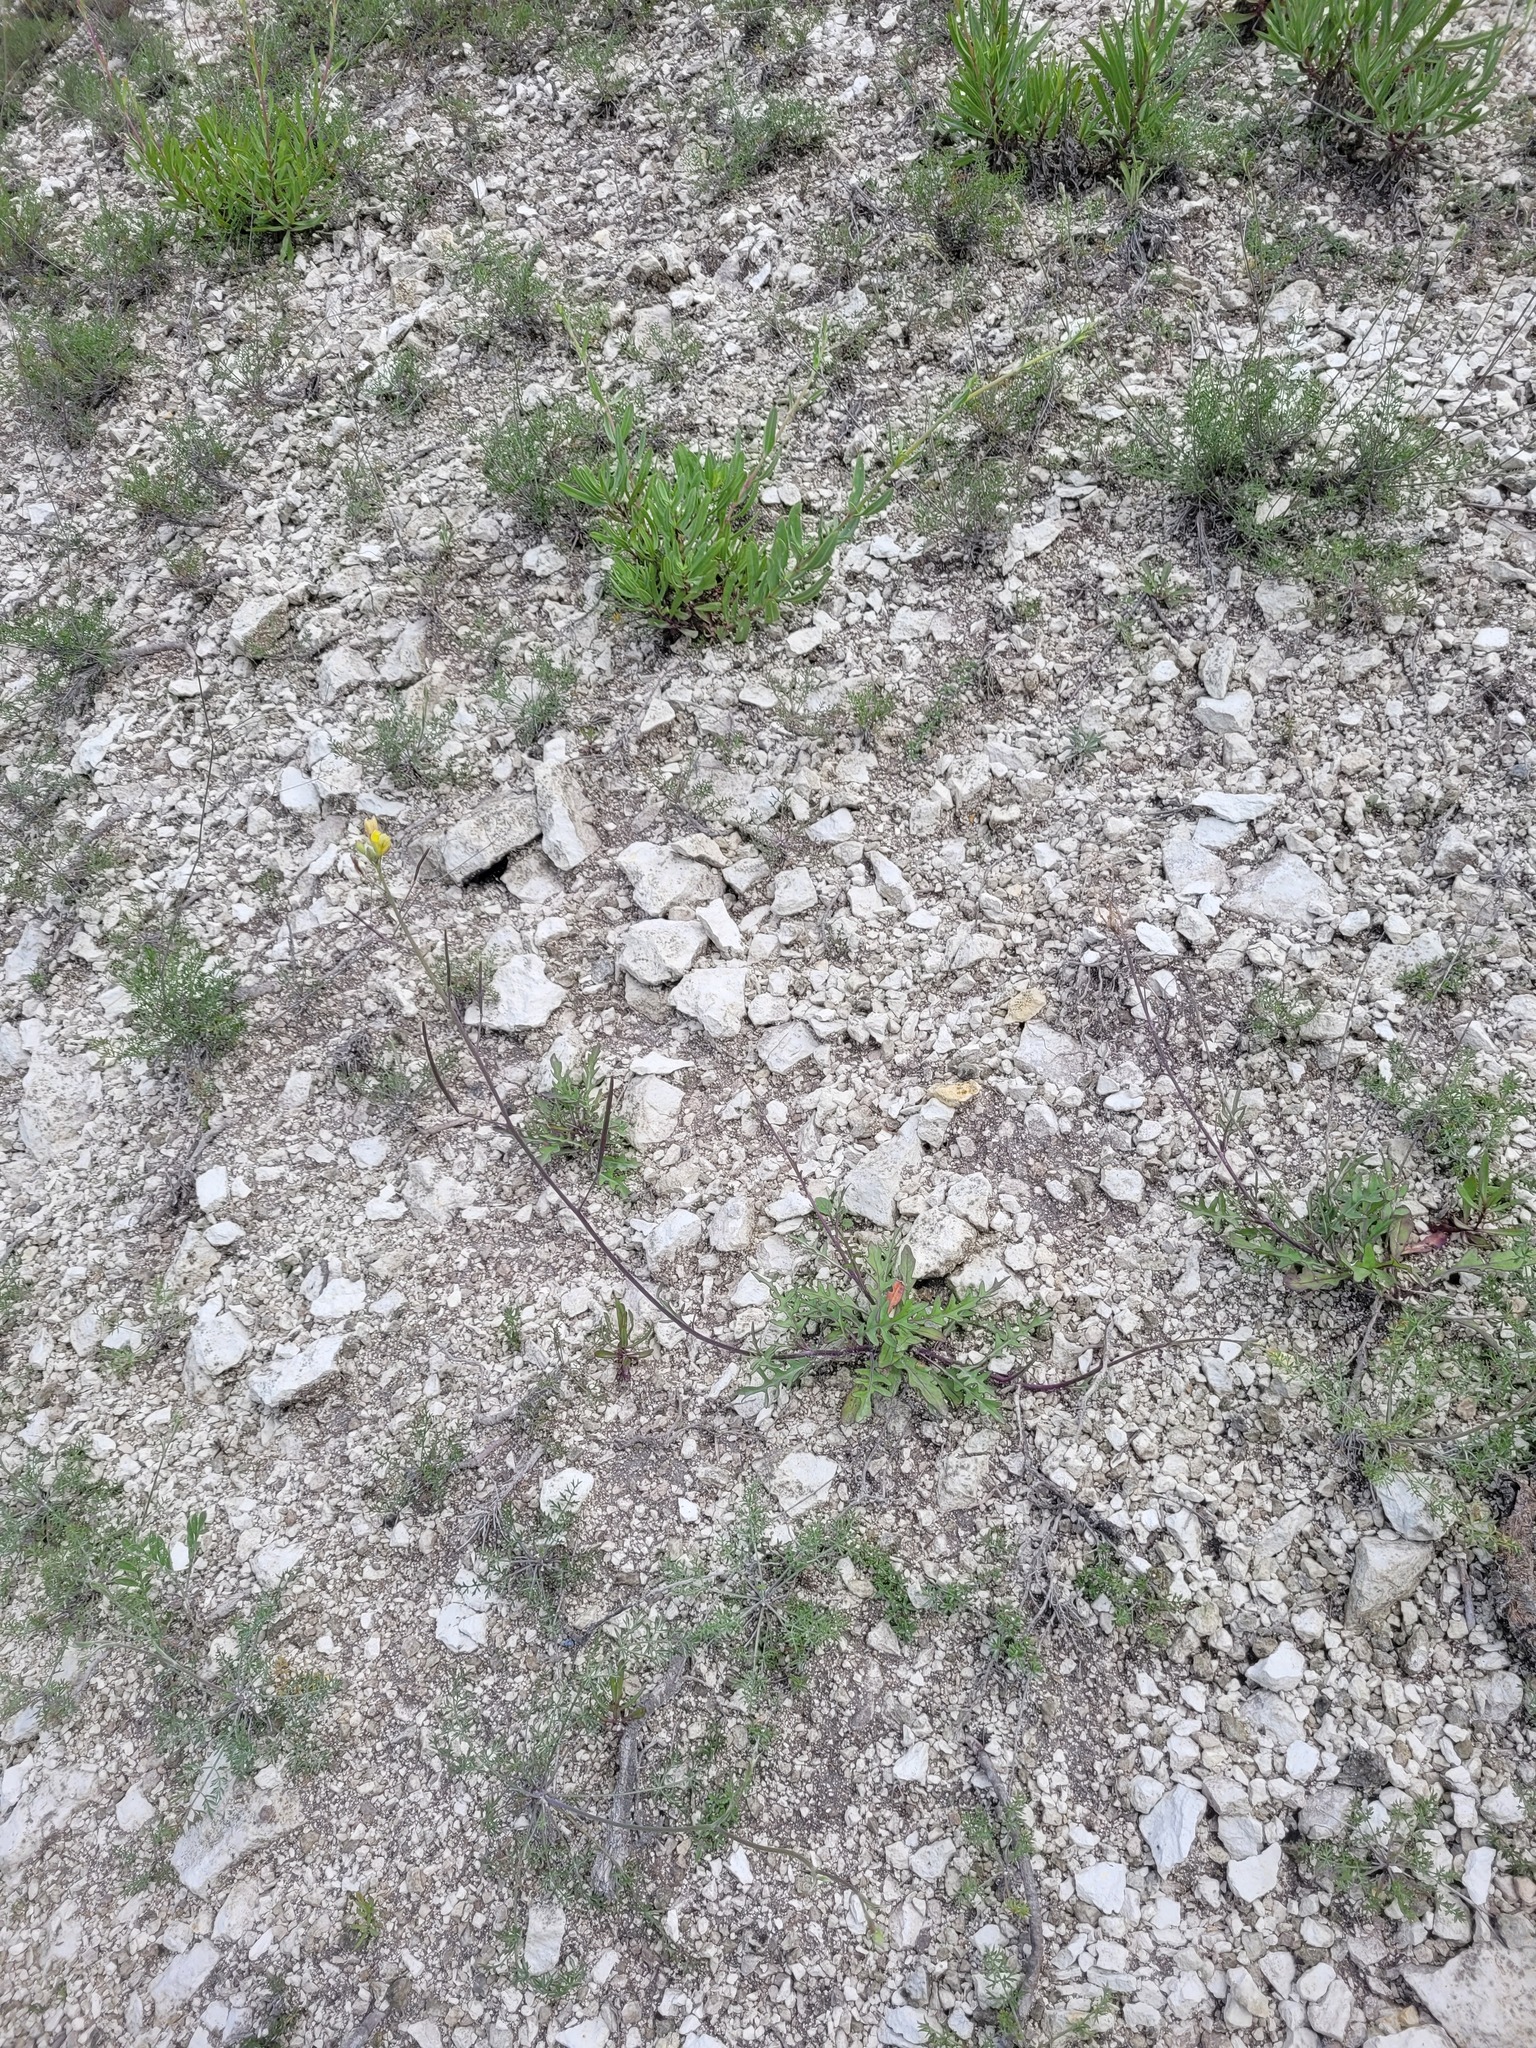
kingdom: Plantae
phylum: Tracheophyta
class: Magnoliopsida
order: Brassicales
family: Brassicaceae
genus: Diplotaxis
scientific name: Diplotaxis cretacea
